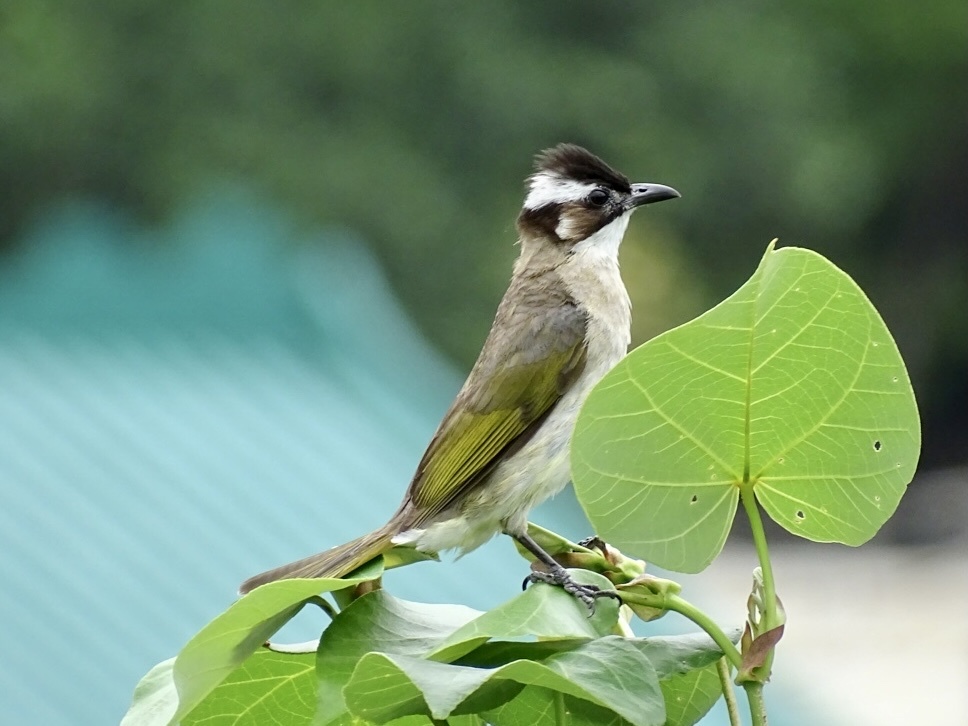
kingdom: Animalia
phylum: Chordata
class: Aves
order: Passeriformes
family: Pycnonotidae
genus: Pycnonotus
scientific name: Pycnonotus sinensis
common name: Light-vented bulbul
